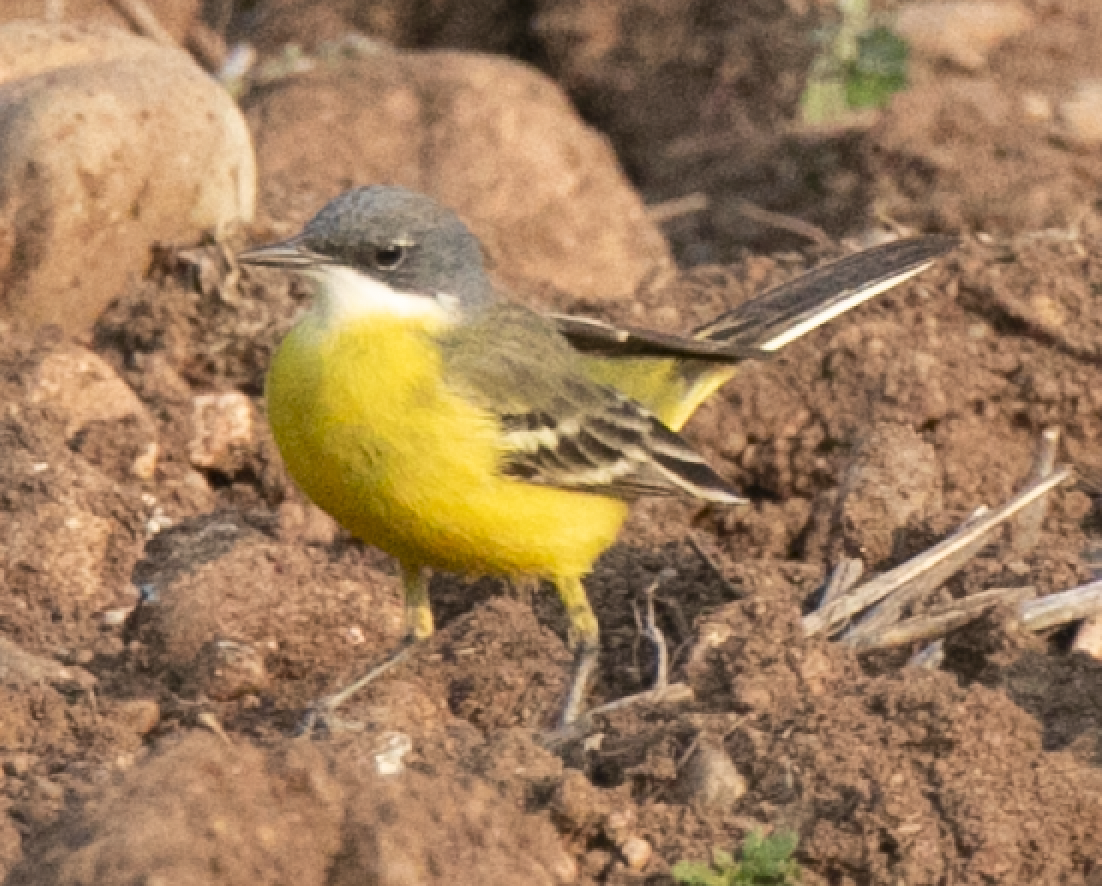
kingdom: Animalia
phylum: Chordata
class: Aves
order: Passeriformes
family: Motacillidae
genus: Motacilla
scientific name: Motacilla flava
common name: Western yellow wagtail
